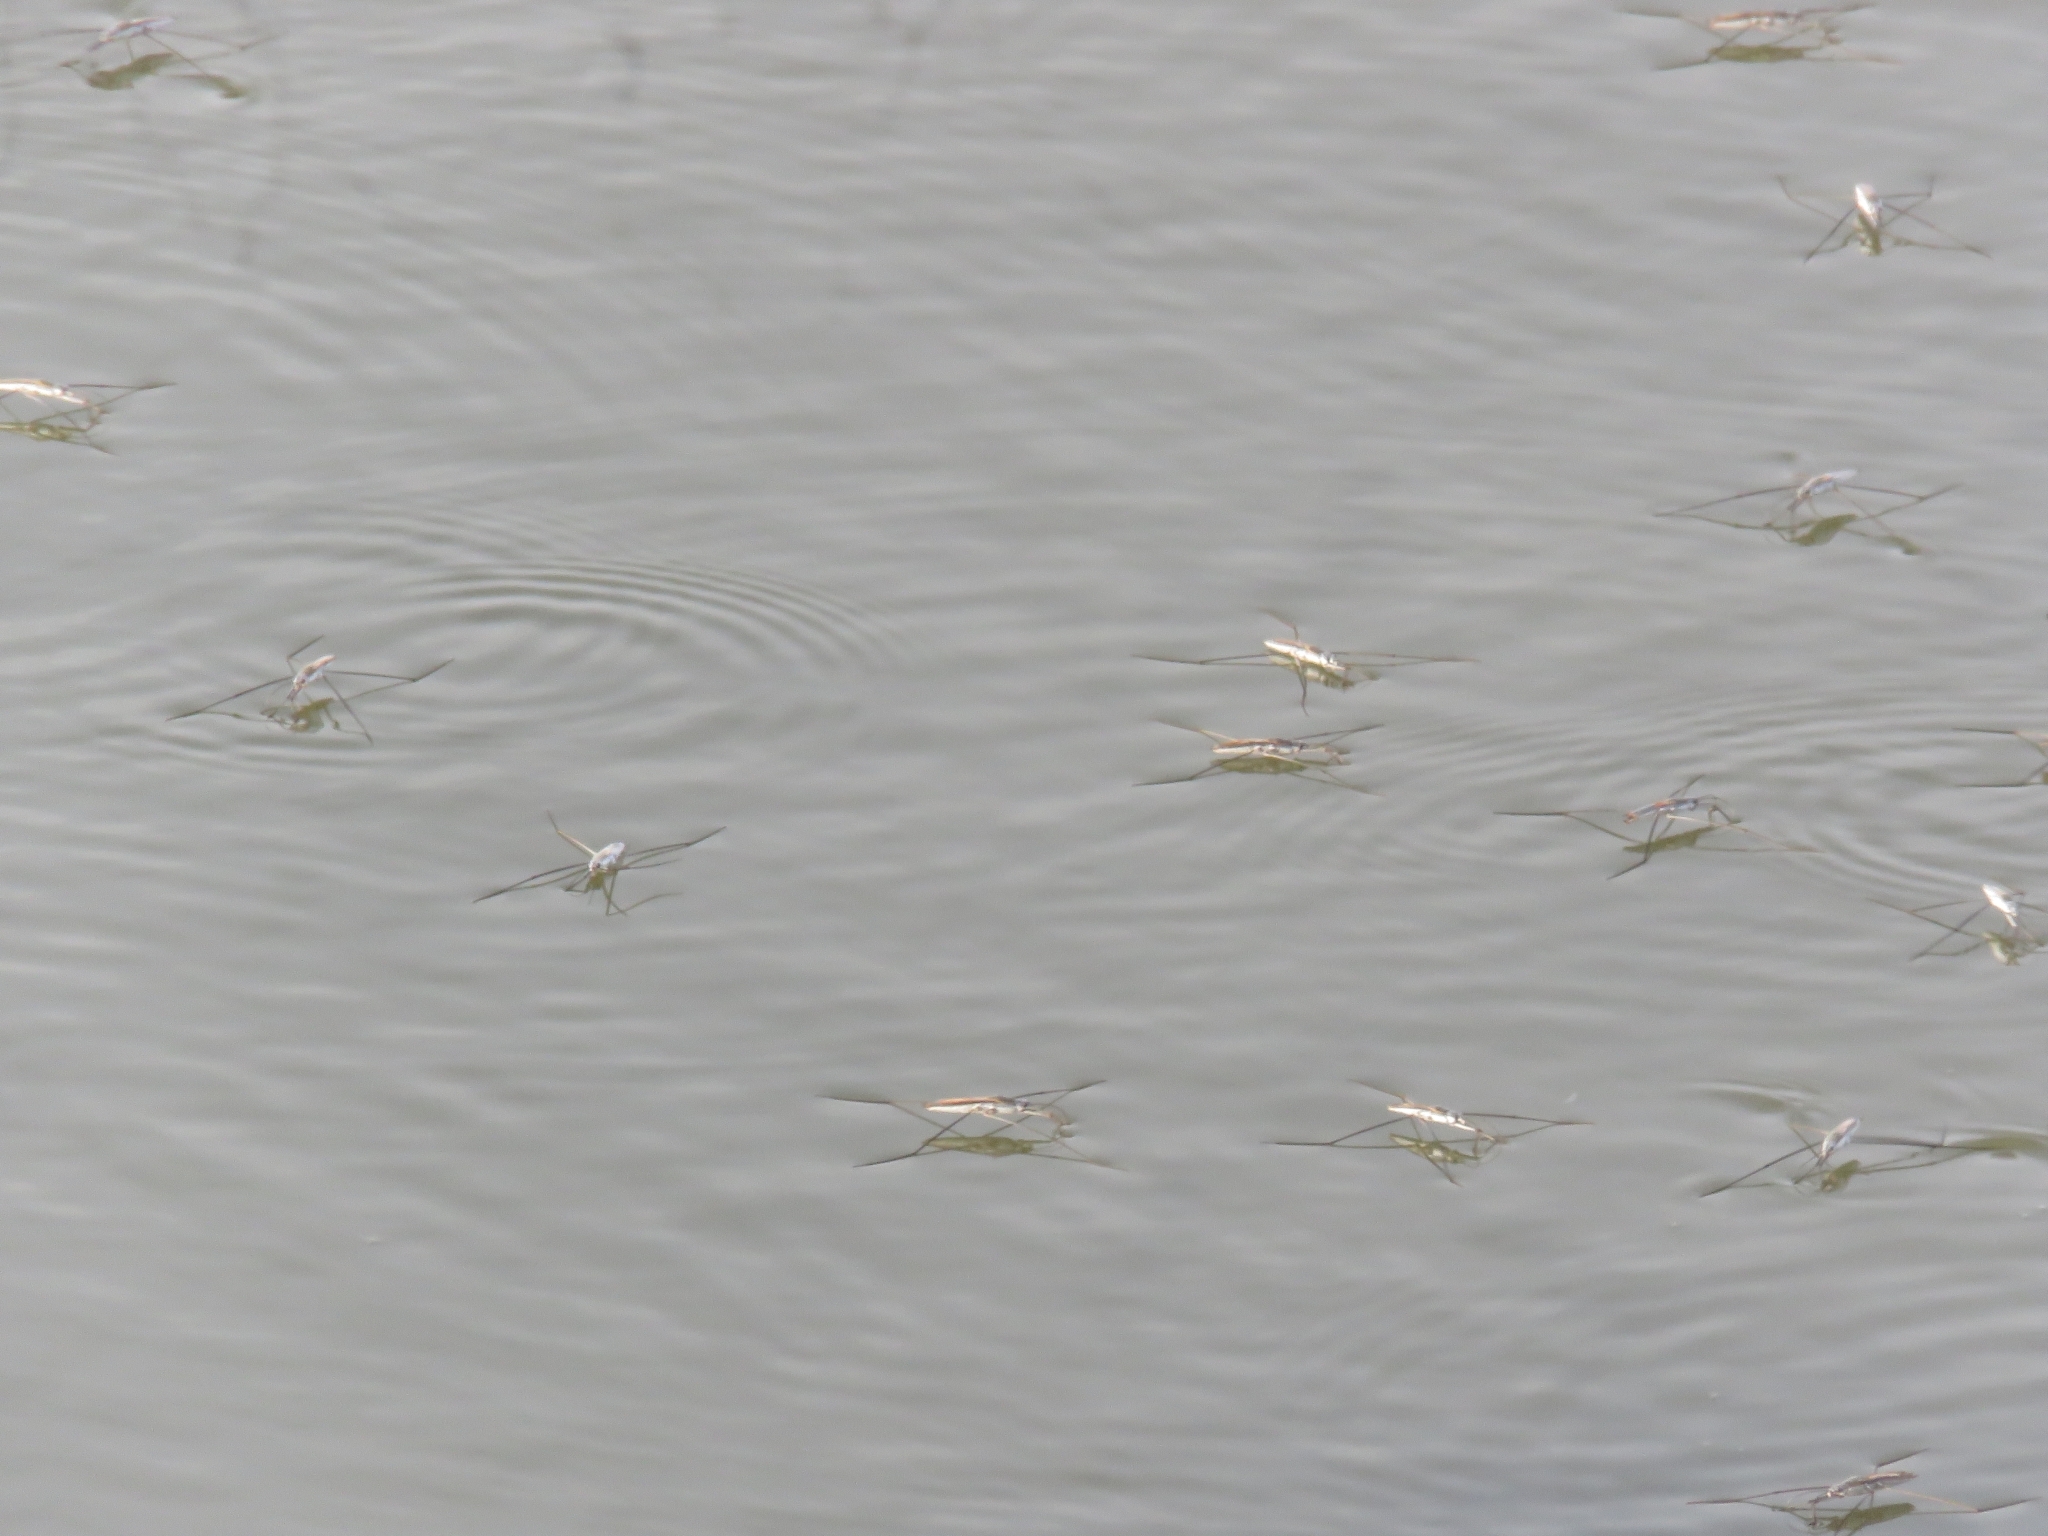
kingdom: Animalia
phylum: Arthropoda
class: Insecta
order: Hemiptera
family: Gerridae
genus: Aquarius
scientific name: Aquarius adelaidis
